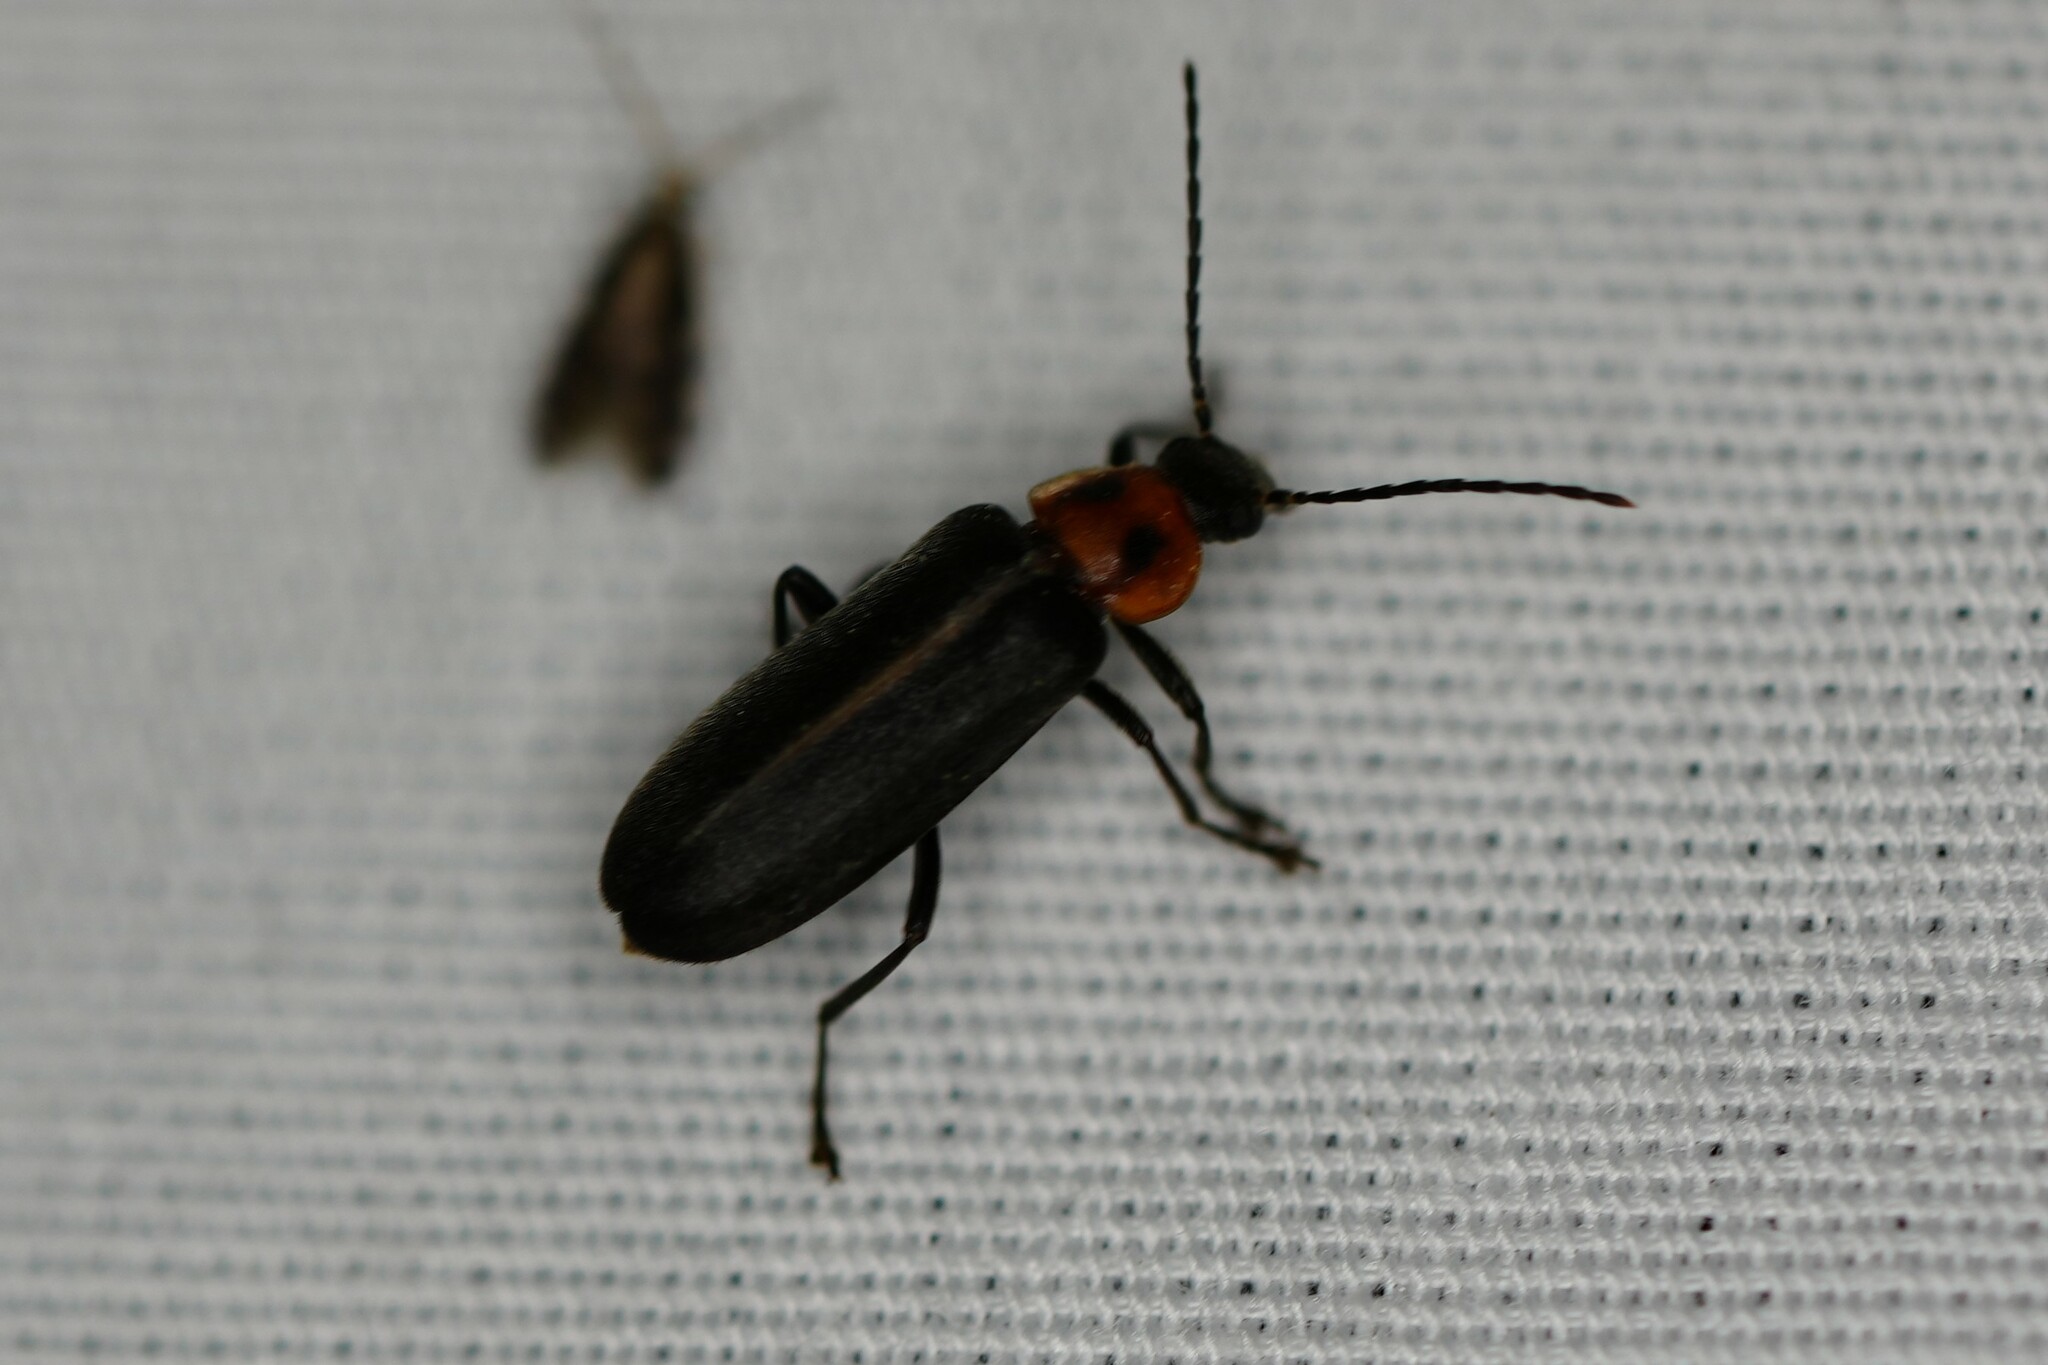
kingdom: Animalia
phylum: Arthropoda
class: Insecta
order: Coleoptera
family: Melandryidae
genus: Osphya
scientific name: Osphya varians
